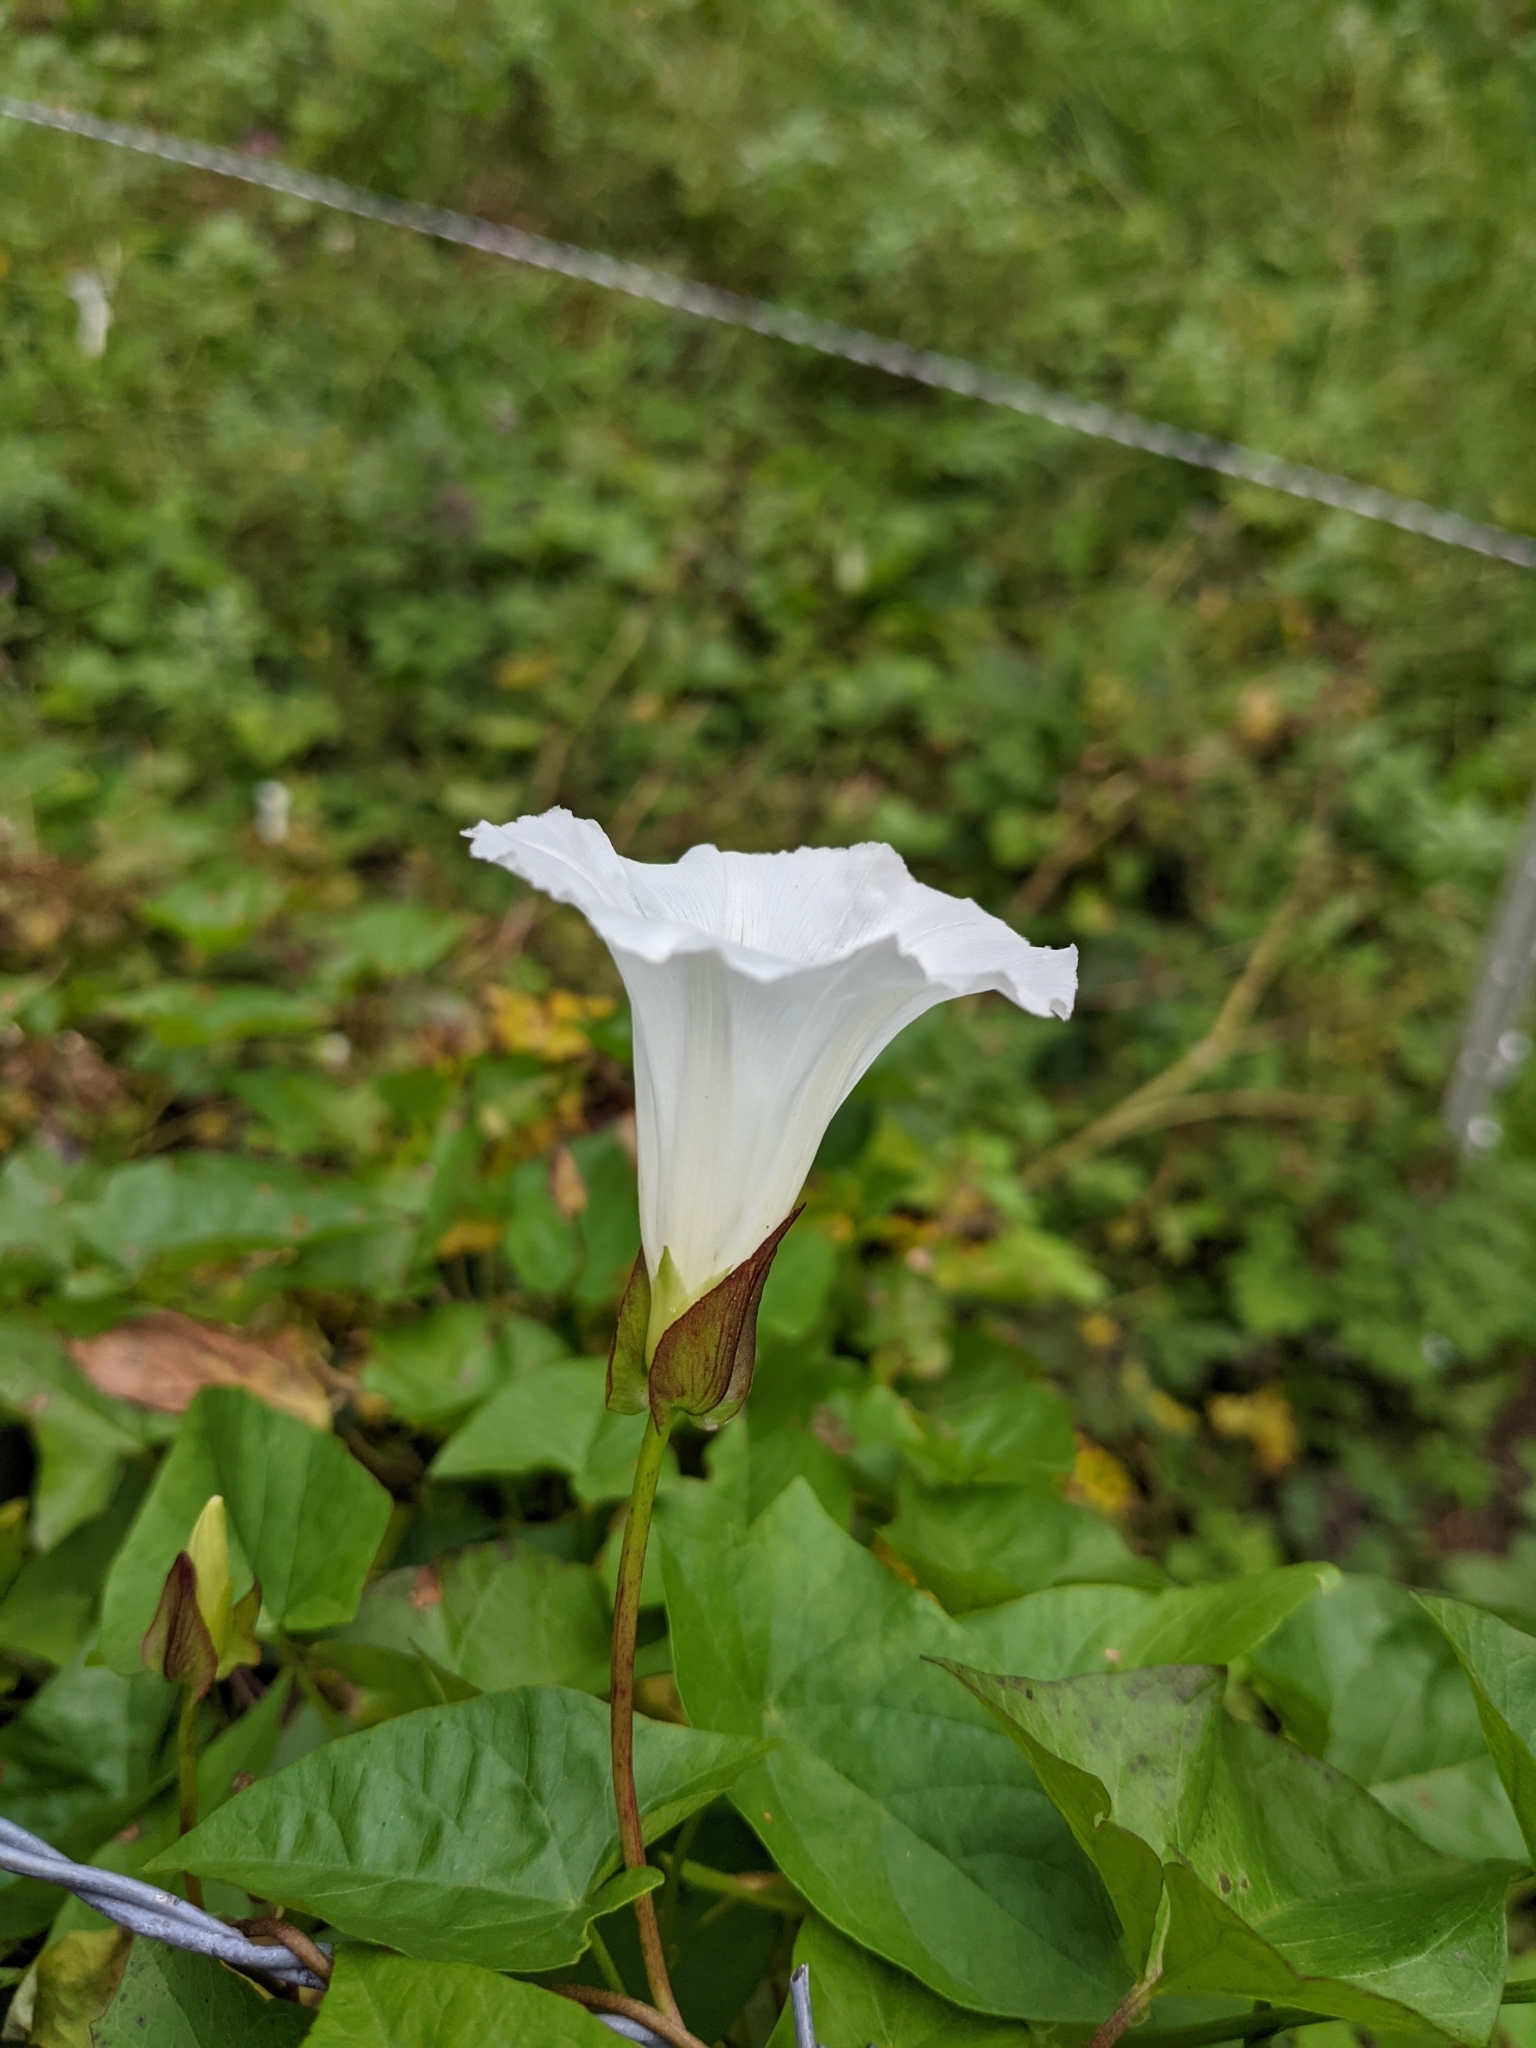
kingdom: Plantae
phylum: Tracheophyta
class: Magnoliopsida
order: Solanales
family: Convolvulaceae
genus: Calystegia
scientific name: Calystegia sepium
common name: Hedge bindweed
